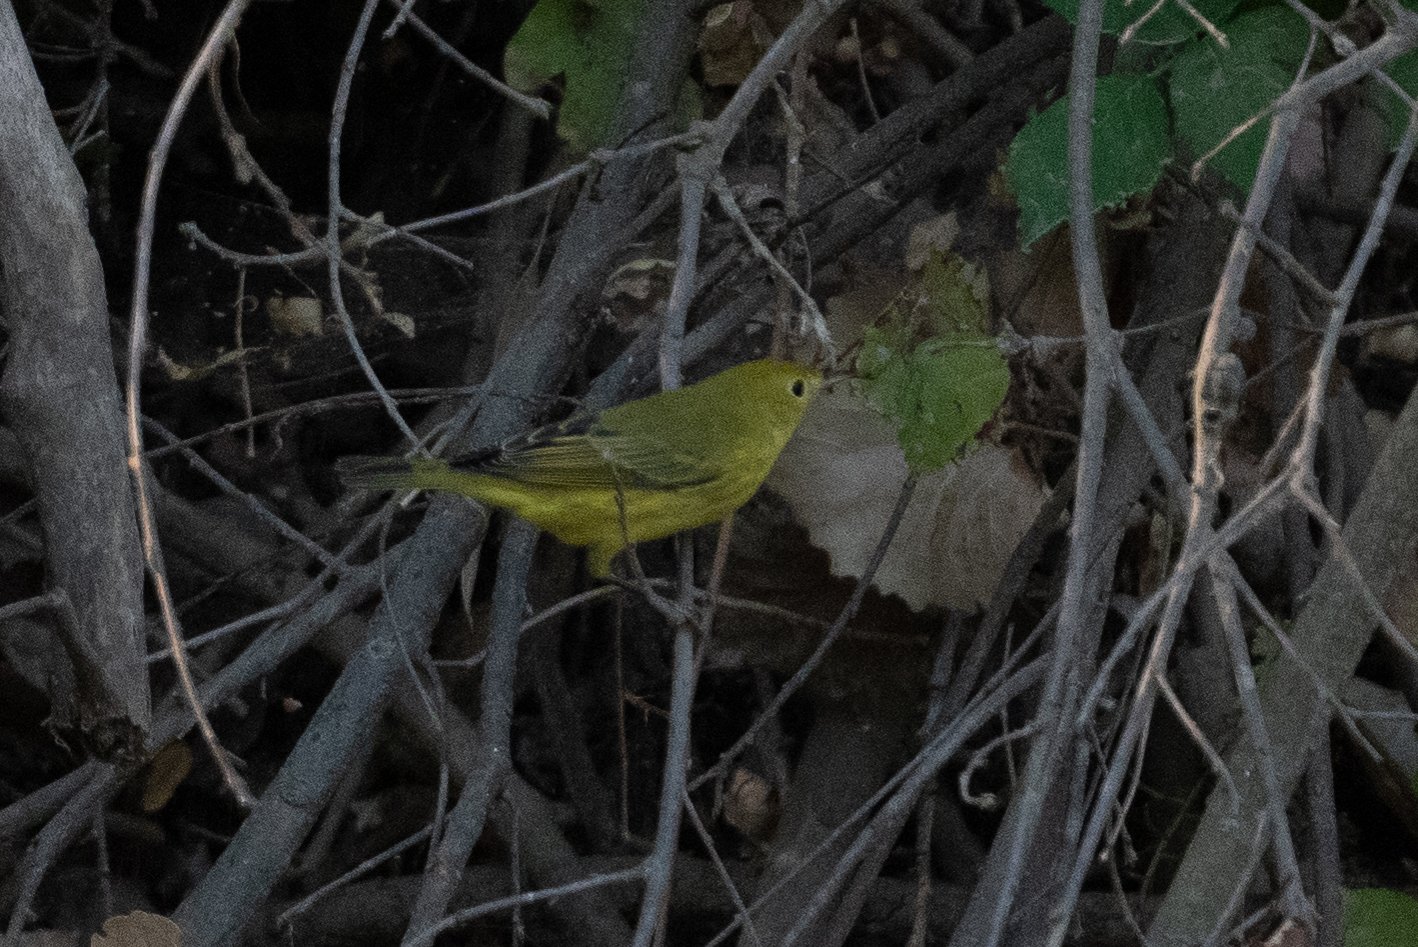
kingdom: Animalia
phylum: Chordata
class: Aves
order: Passeriformes
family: Parulidae
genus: Setophaga
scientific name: Setophaga petechia
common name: Yellow warbler
